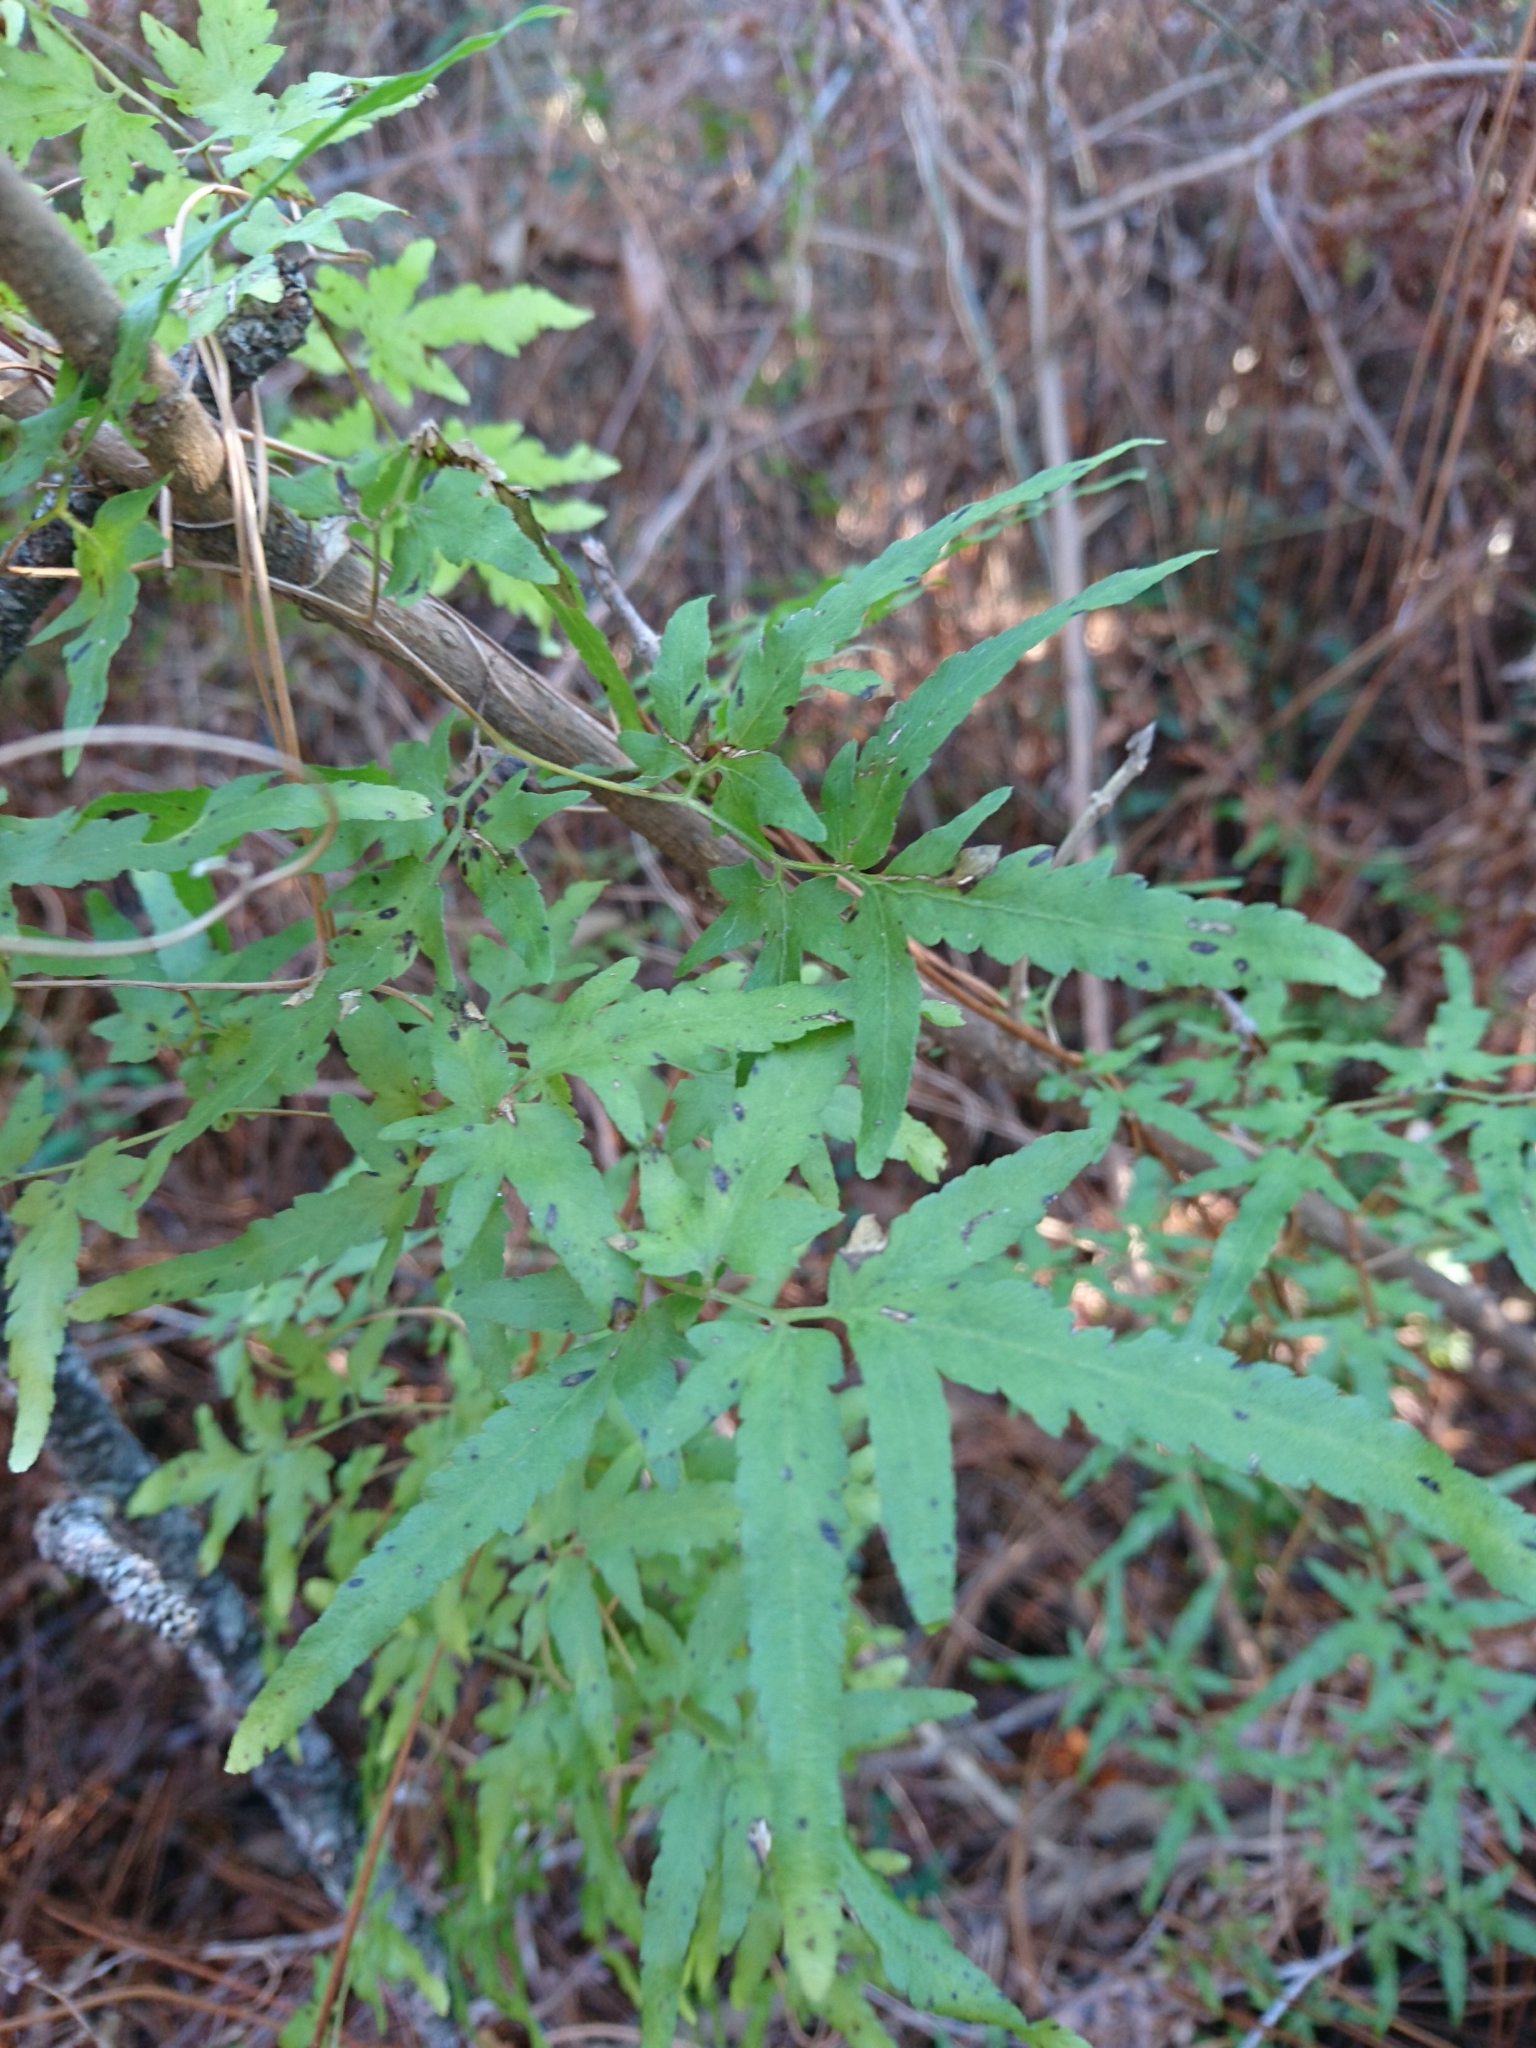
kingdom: Plantae
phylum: Tracheophyta
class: Polypodiopsida
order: Schizaeales
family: Lygodiaceae
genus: Lygodium
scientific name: Lygodium japonicum
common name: Japanese climbing fern
